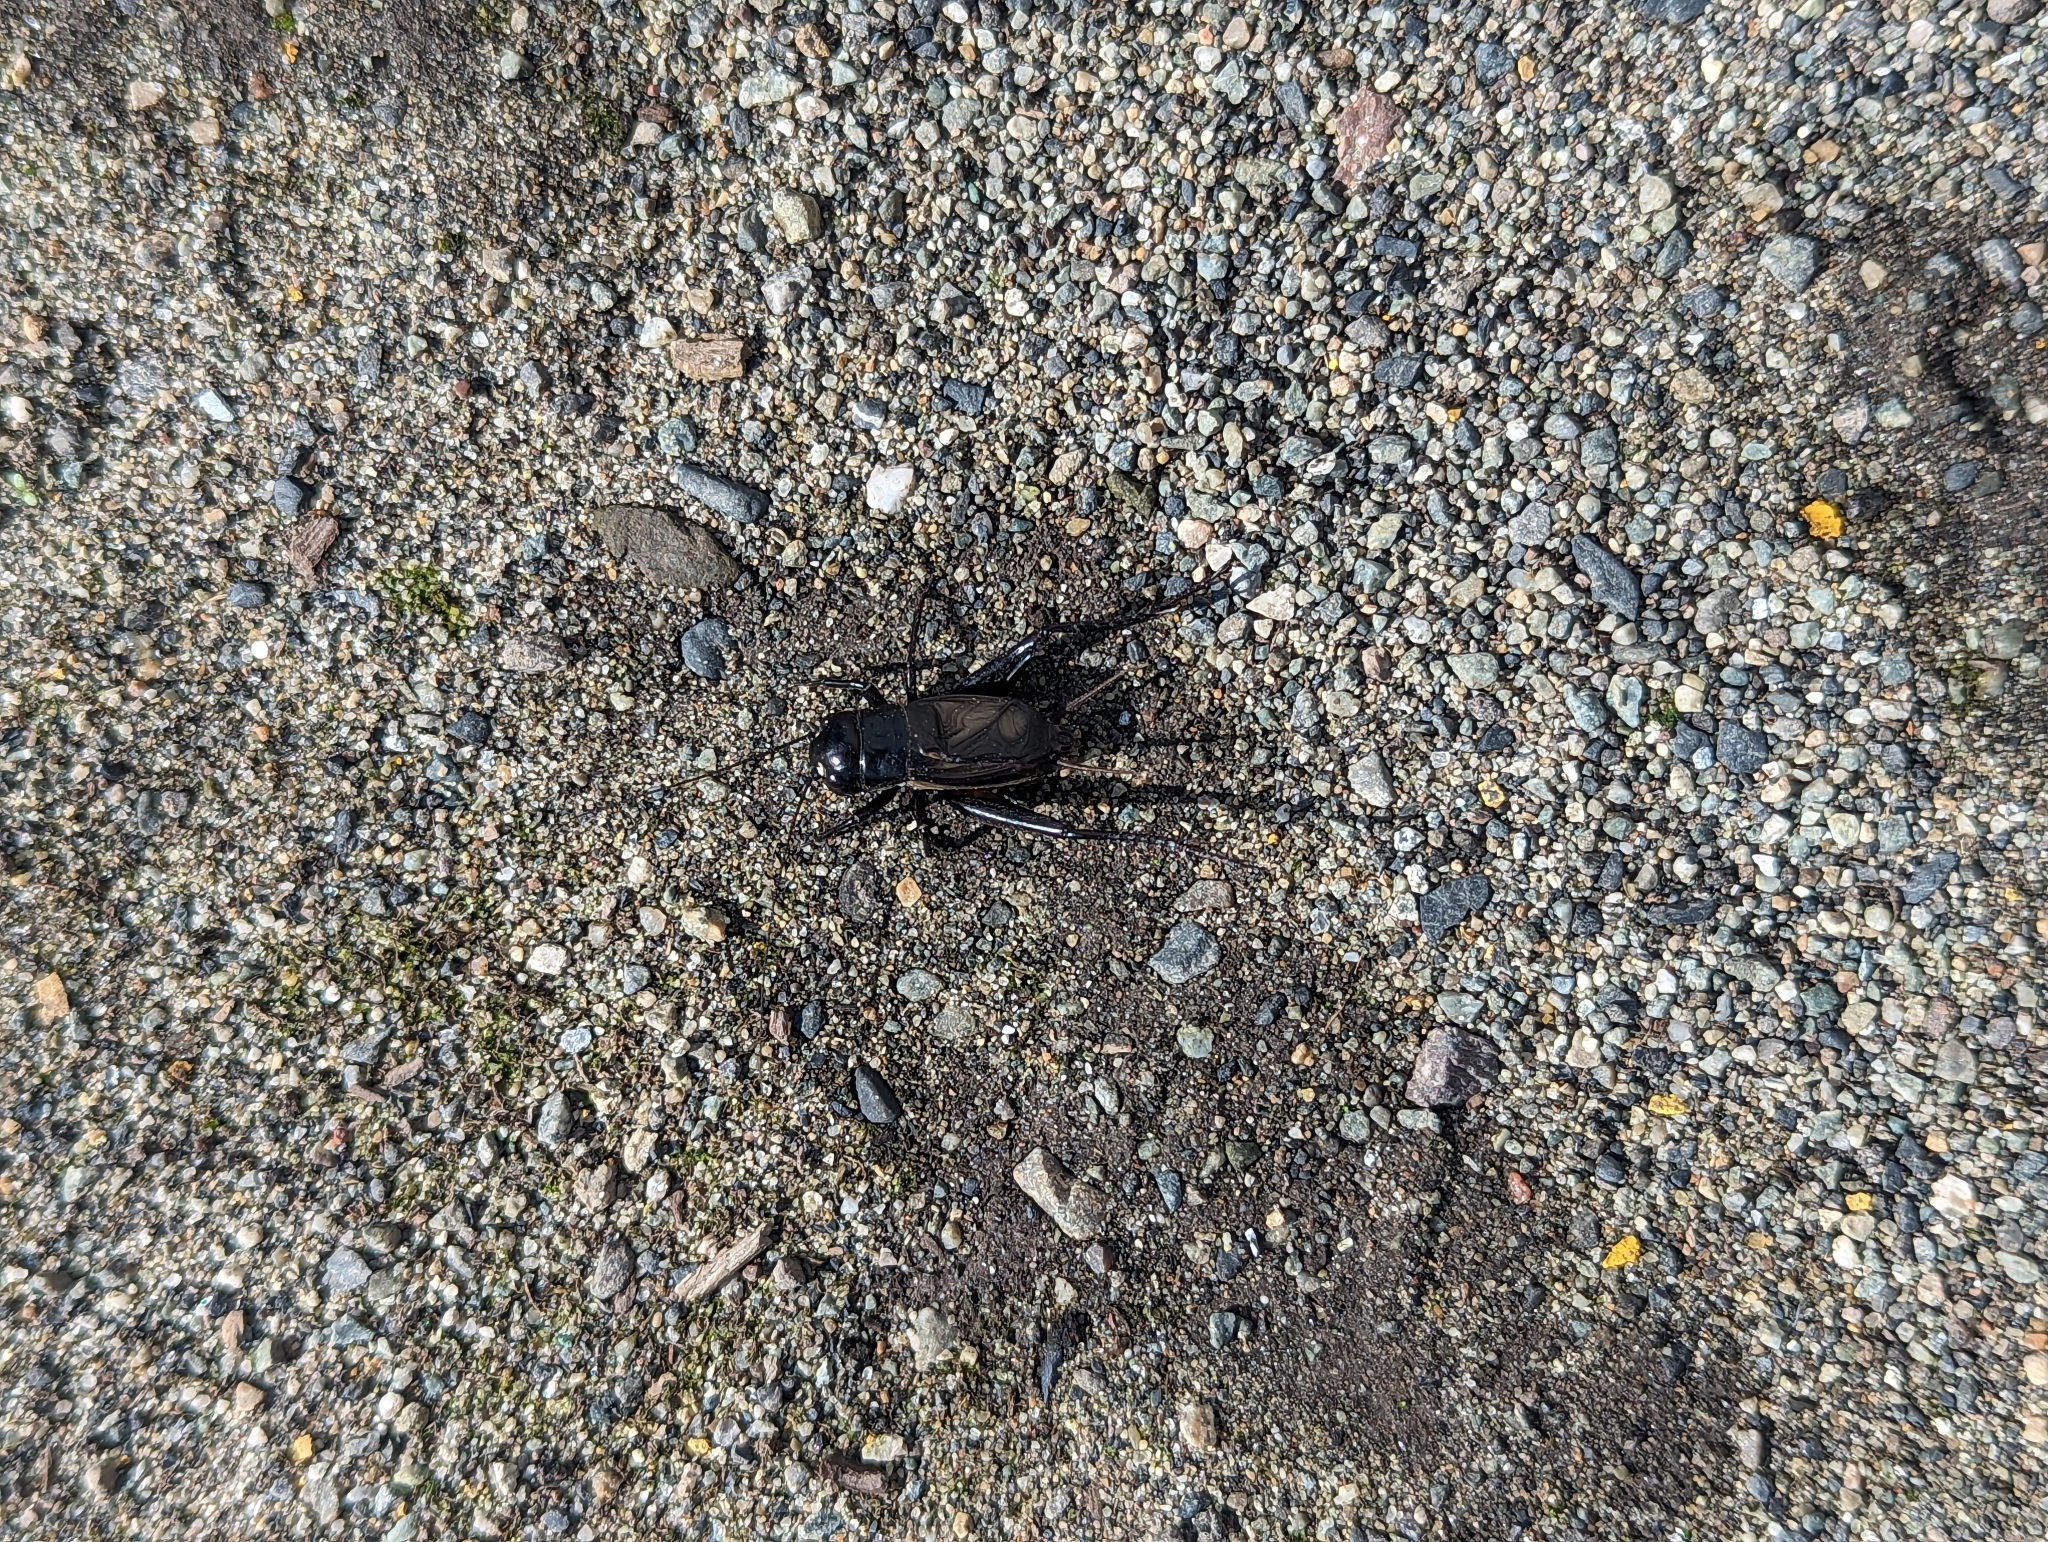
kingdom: Animalia
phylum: Arthropoda
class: Insecta
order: Orthoptera
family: Gryllidae
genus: Gryllus
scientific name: Gryllus pennsylvanicus
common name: Fall field cricket
